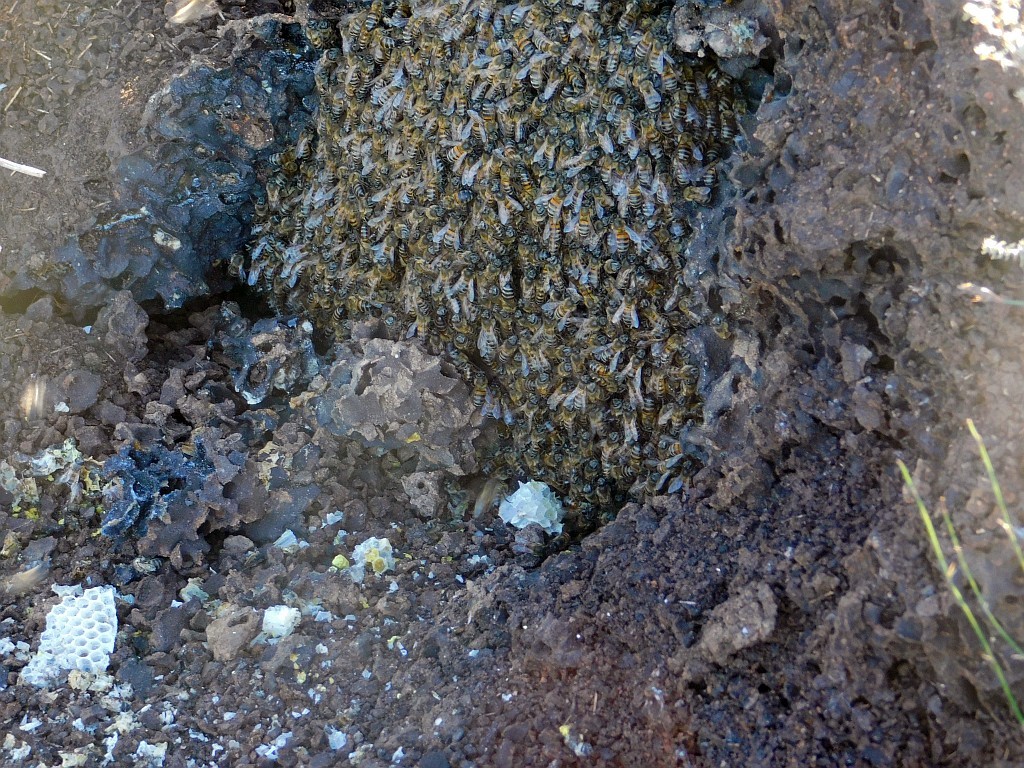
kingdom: Animalia
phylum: Arthropoda
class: Insecta
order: Hymenoptera
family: Apidae
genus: Apis
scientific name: Apis mellifera
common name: Honey bee
